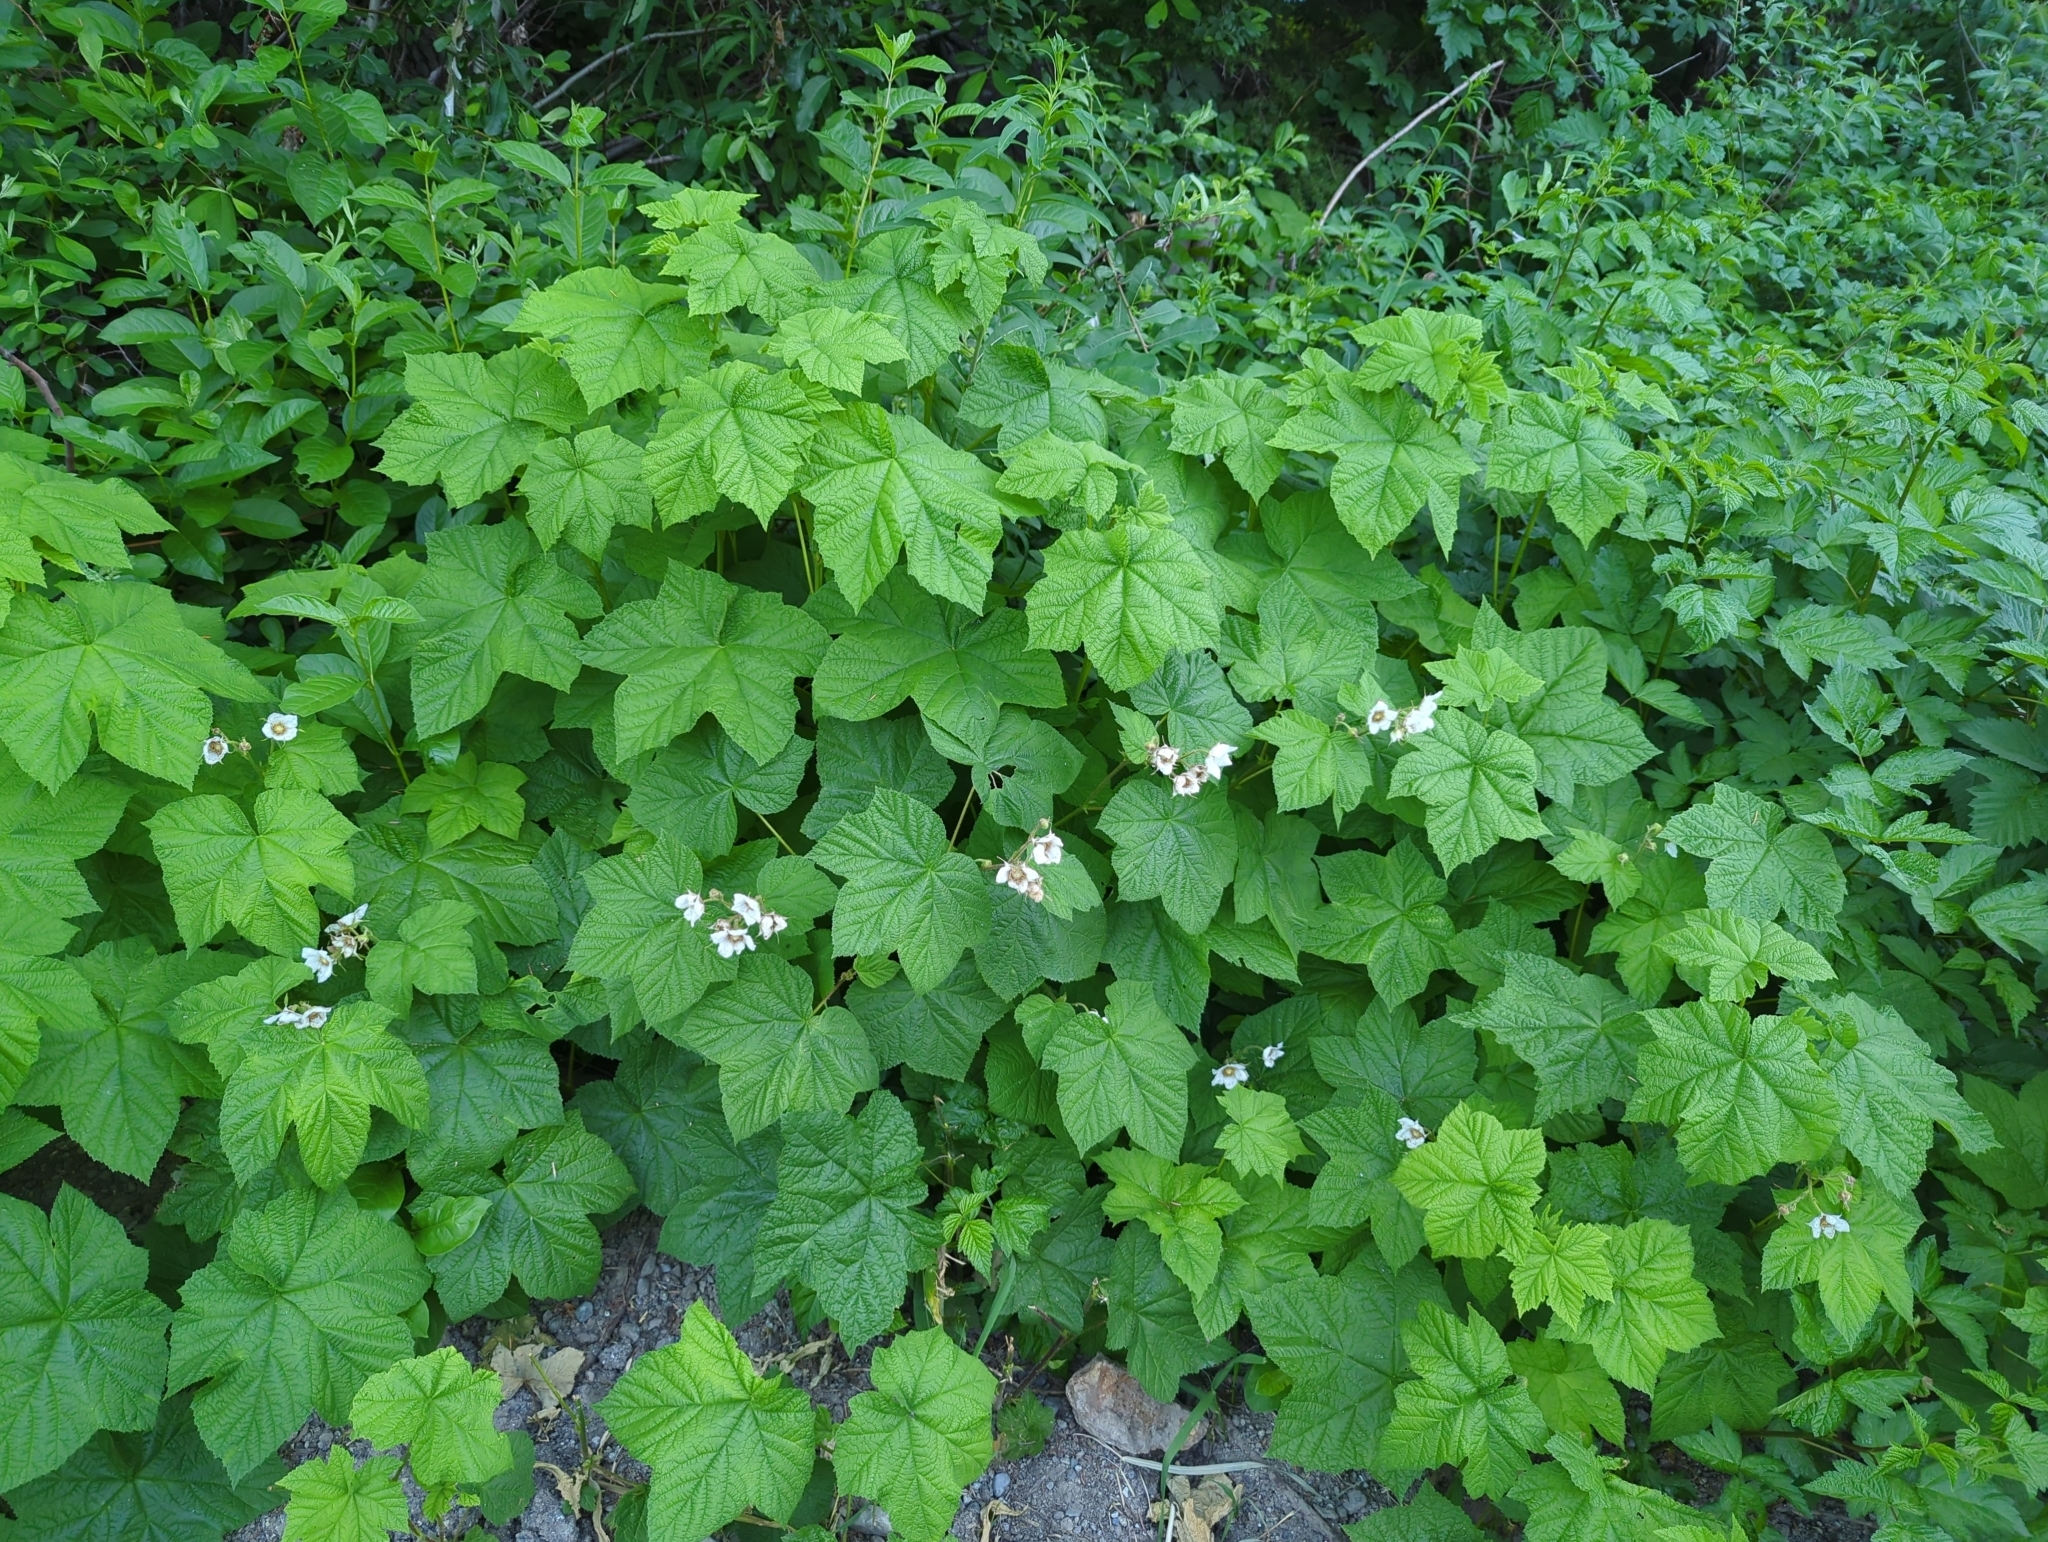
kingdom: Plantae
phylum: Tracheophyta
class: Magnoliopsida
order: Rosales
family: Rosaceae
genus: Rubus
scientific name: Rubus parviflorus
